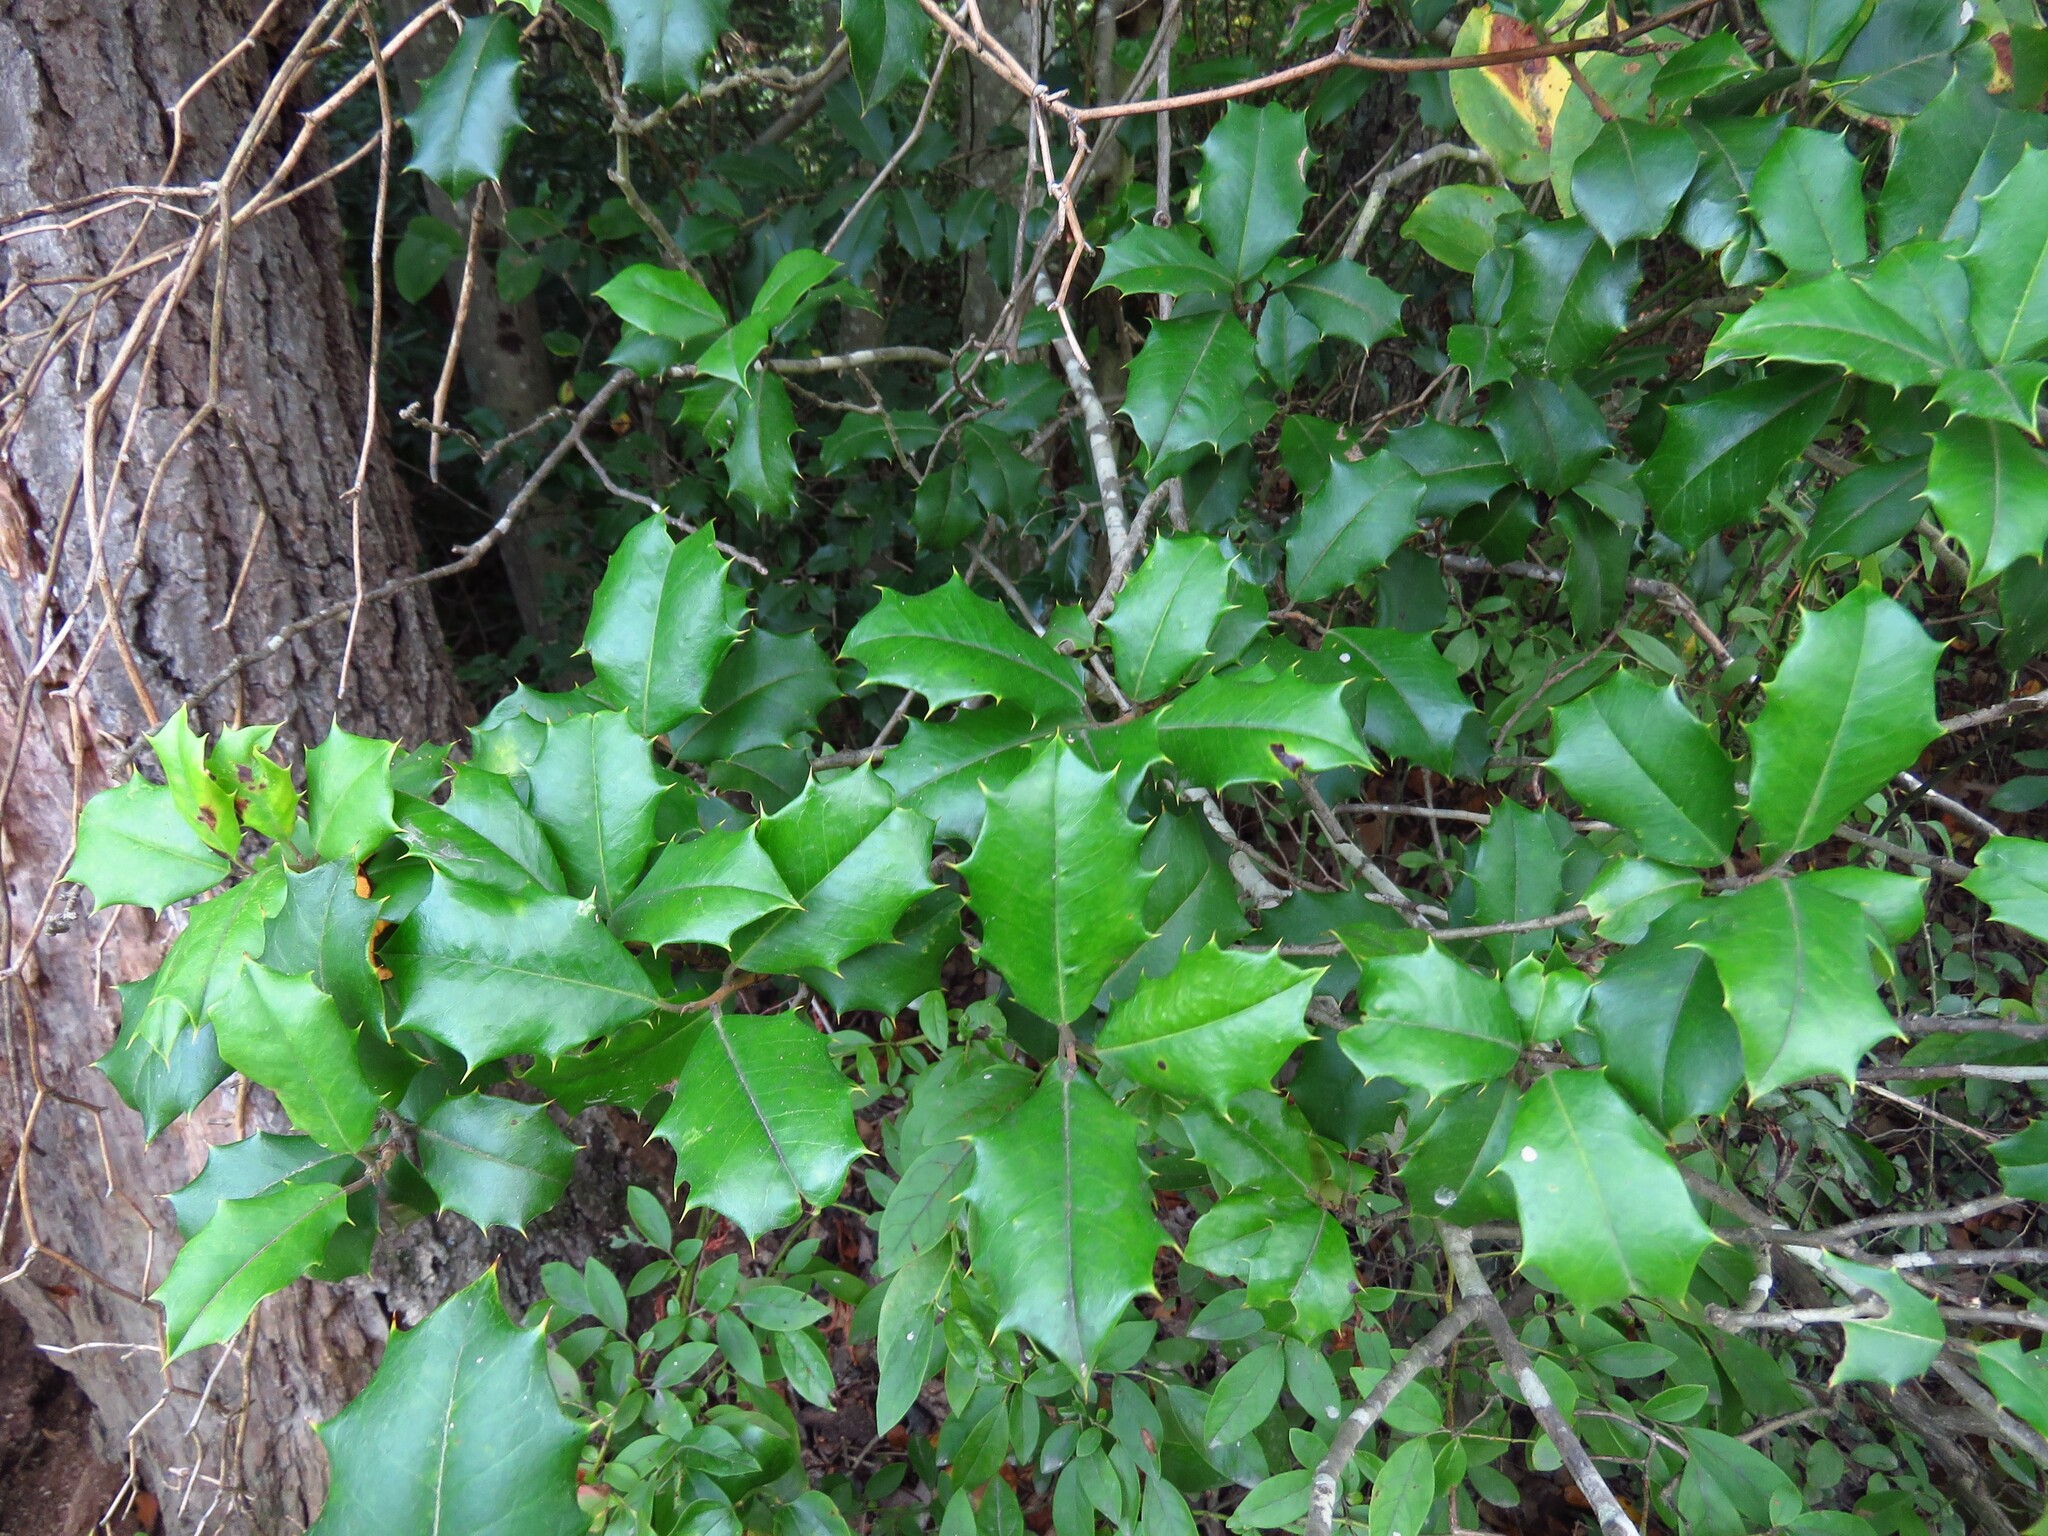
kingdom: Plantae
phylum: Tracheophyta
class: Magnoliopsida
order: Aquifoliales
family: Aquifoliaceae
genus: Ilex
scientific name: Ilex opaca
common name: American holly
